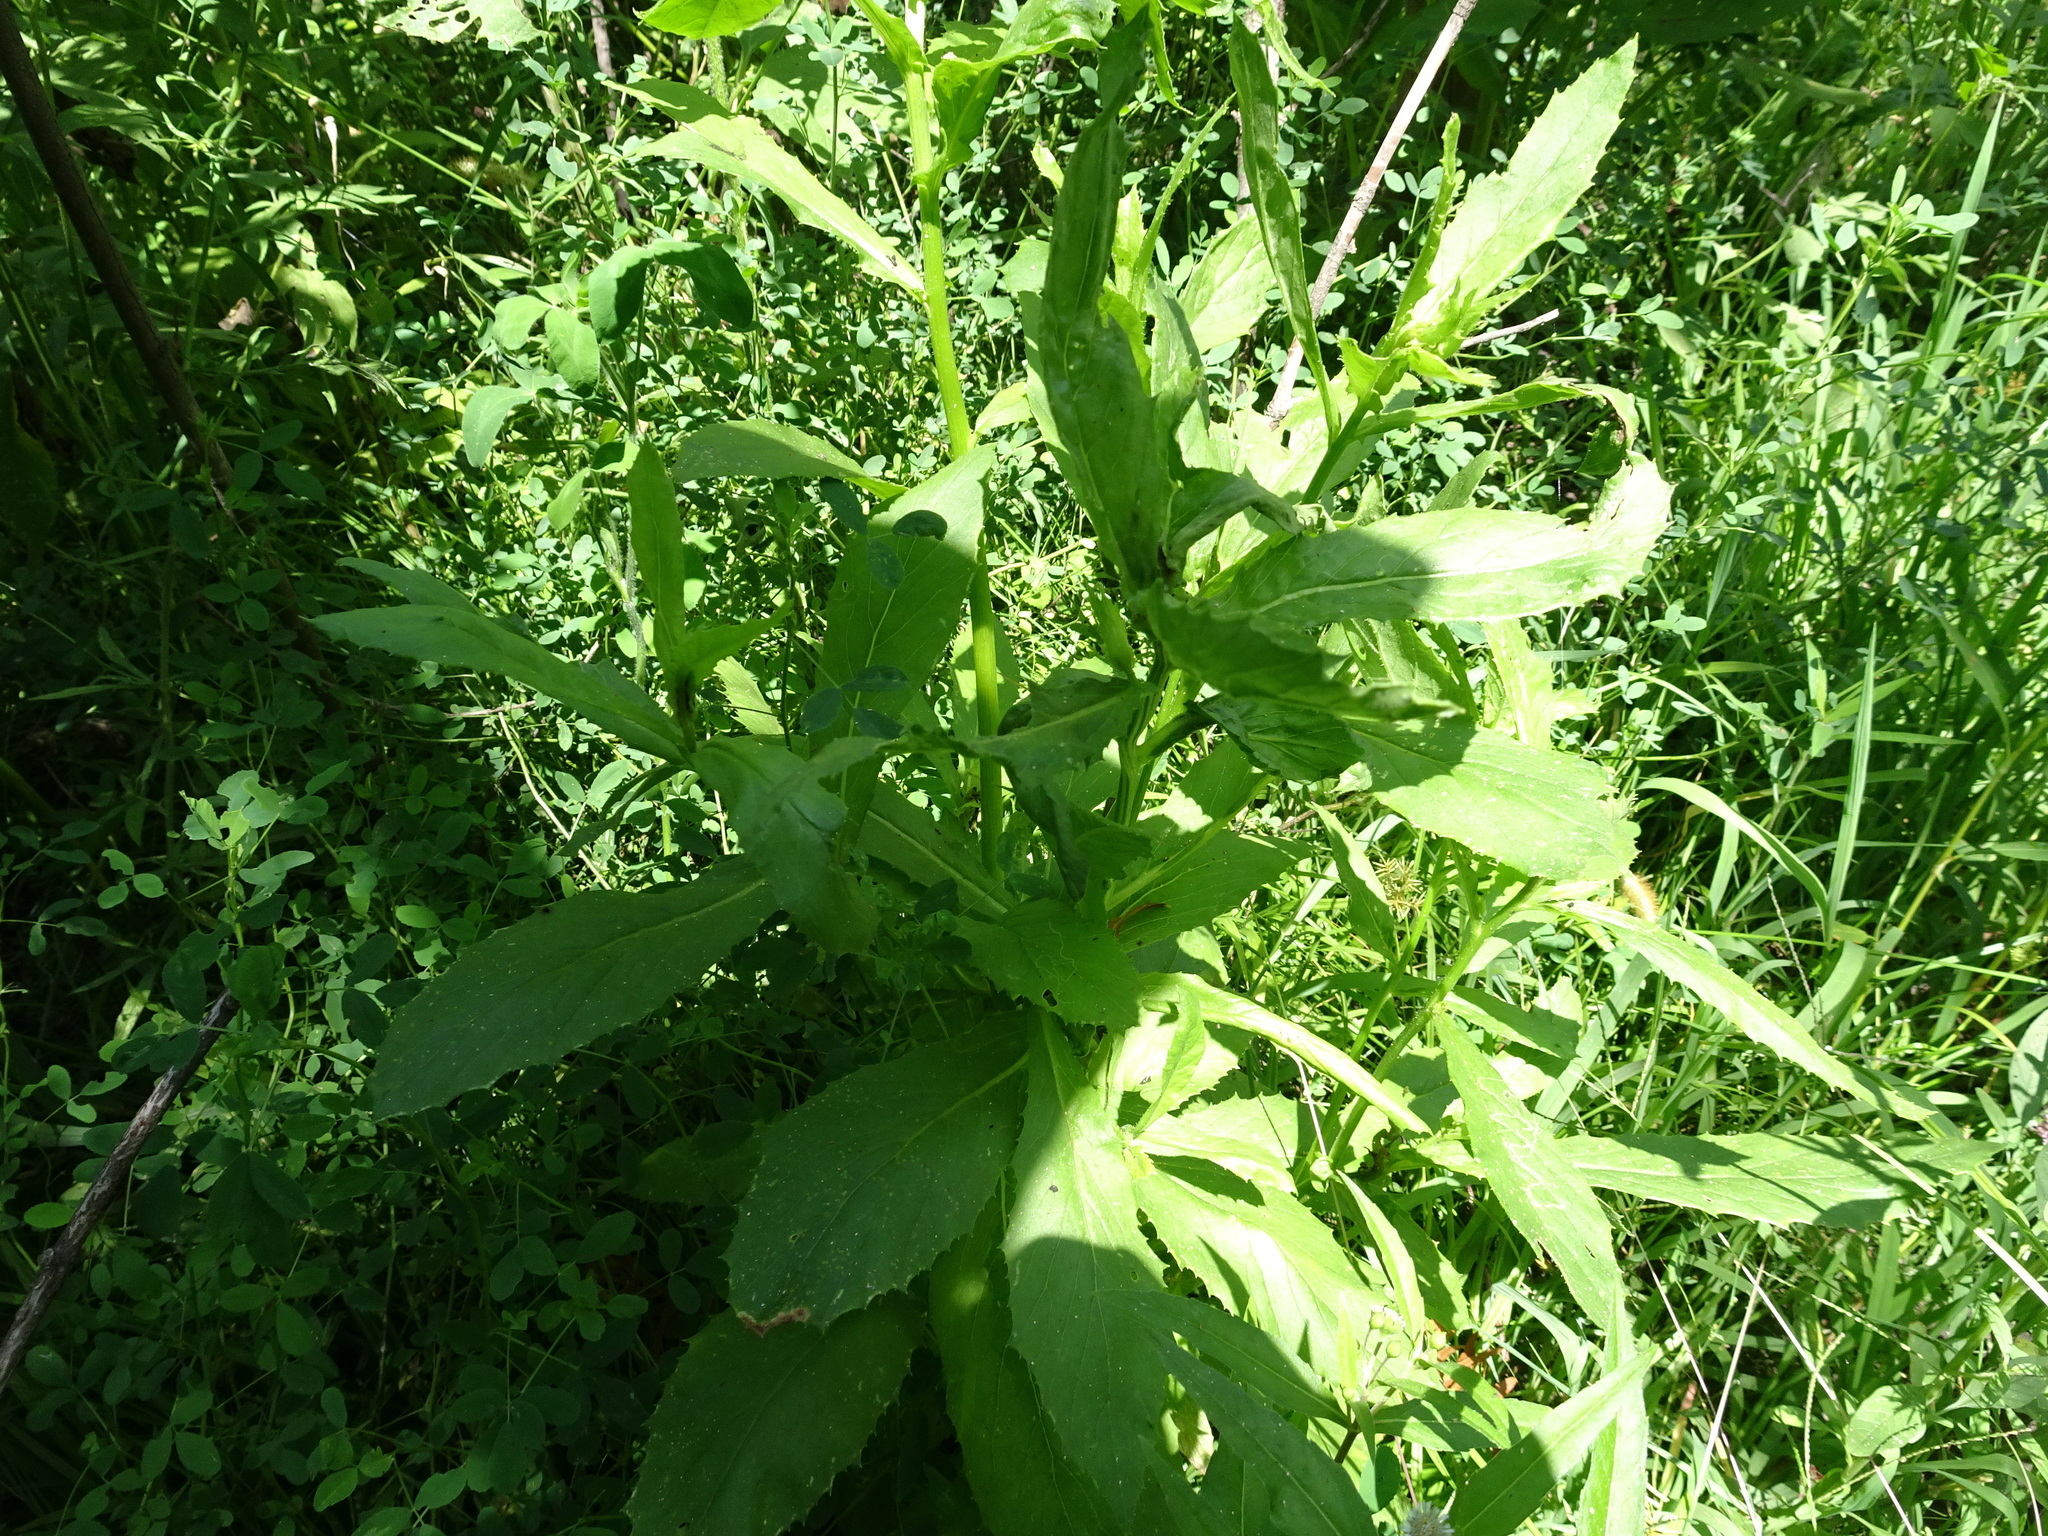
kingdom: Plantae
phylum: Tracheophyta
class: Magnoliopsida
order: Asterales
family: Asteraceae
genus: Erechtites
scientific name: Erechtites hieraciifolius
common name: American burnweed
